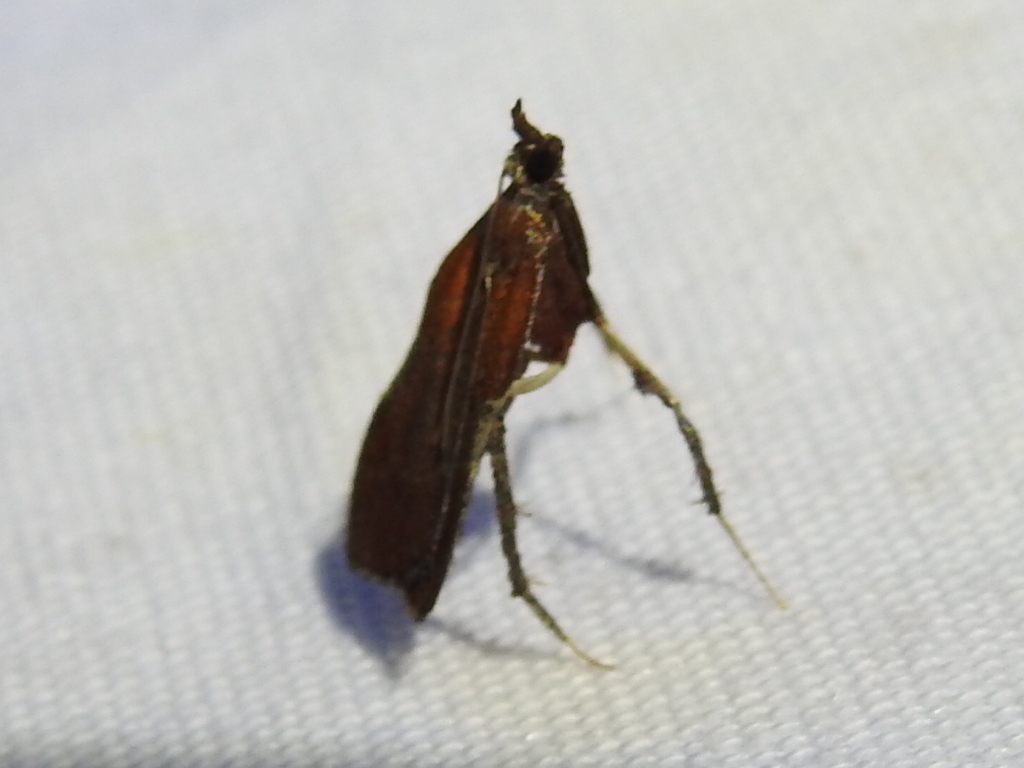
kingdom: Animalia
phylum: Arthropoda
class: Insecta
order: Lepidoptera
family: Pyralidae
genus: Galasa
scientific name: Galasa nigrinodis
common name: Boxwood leaftier moth
